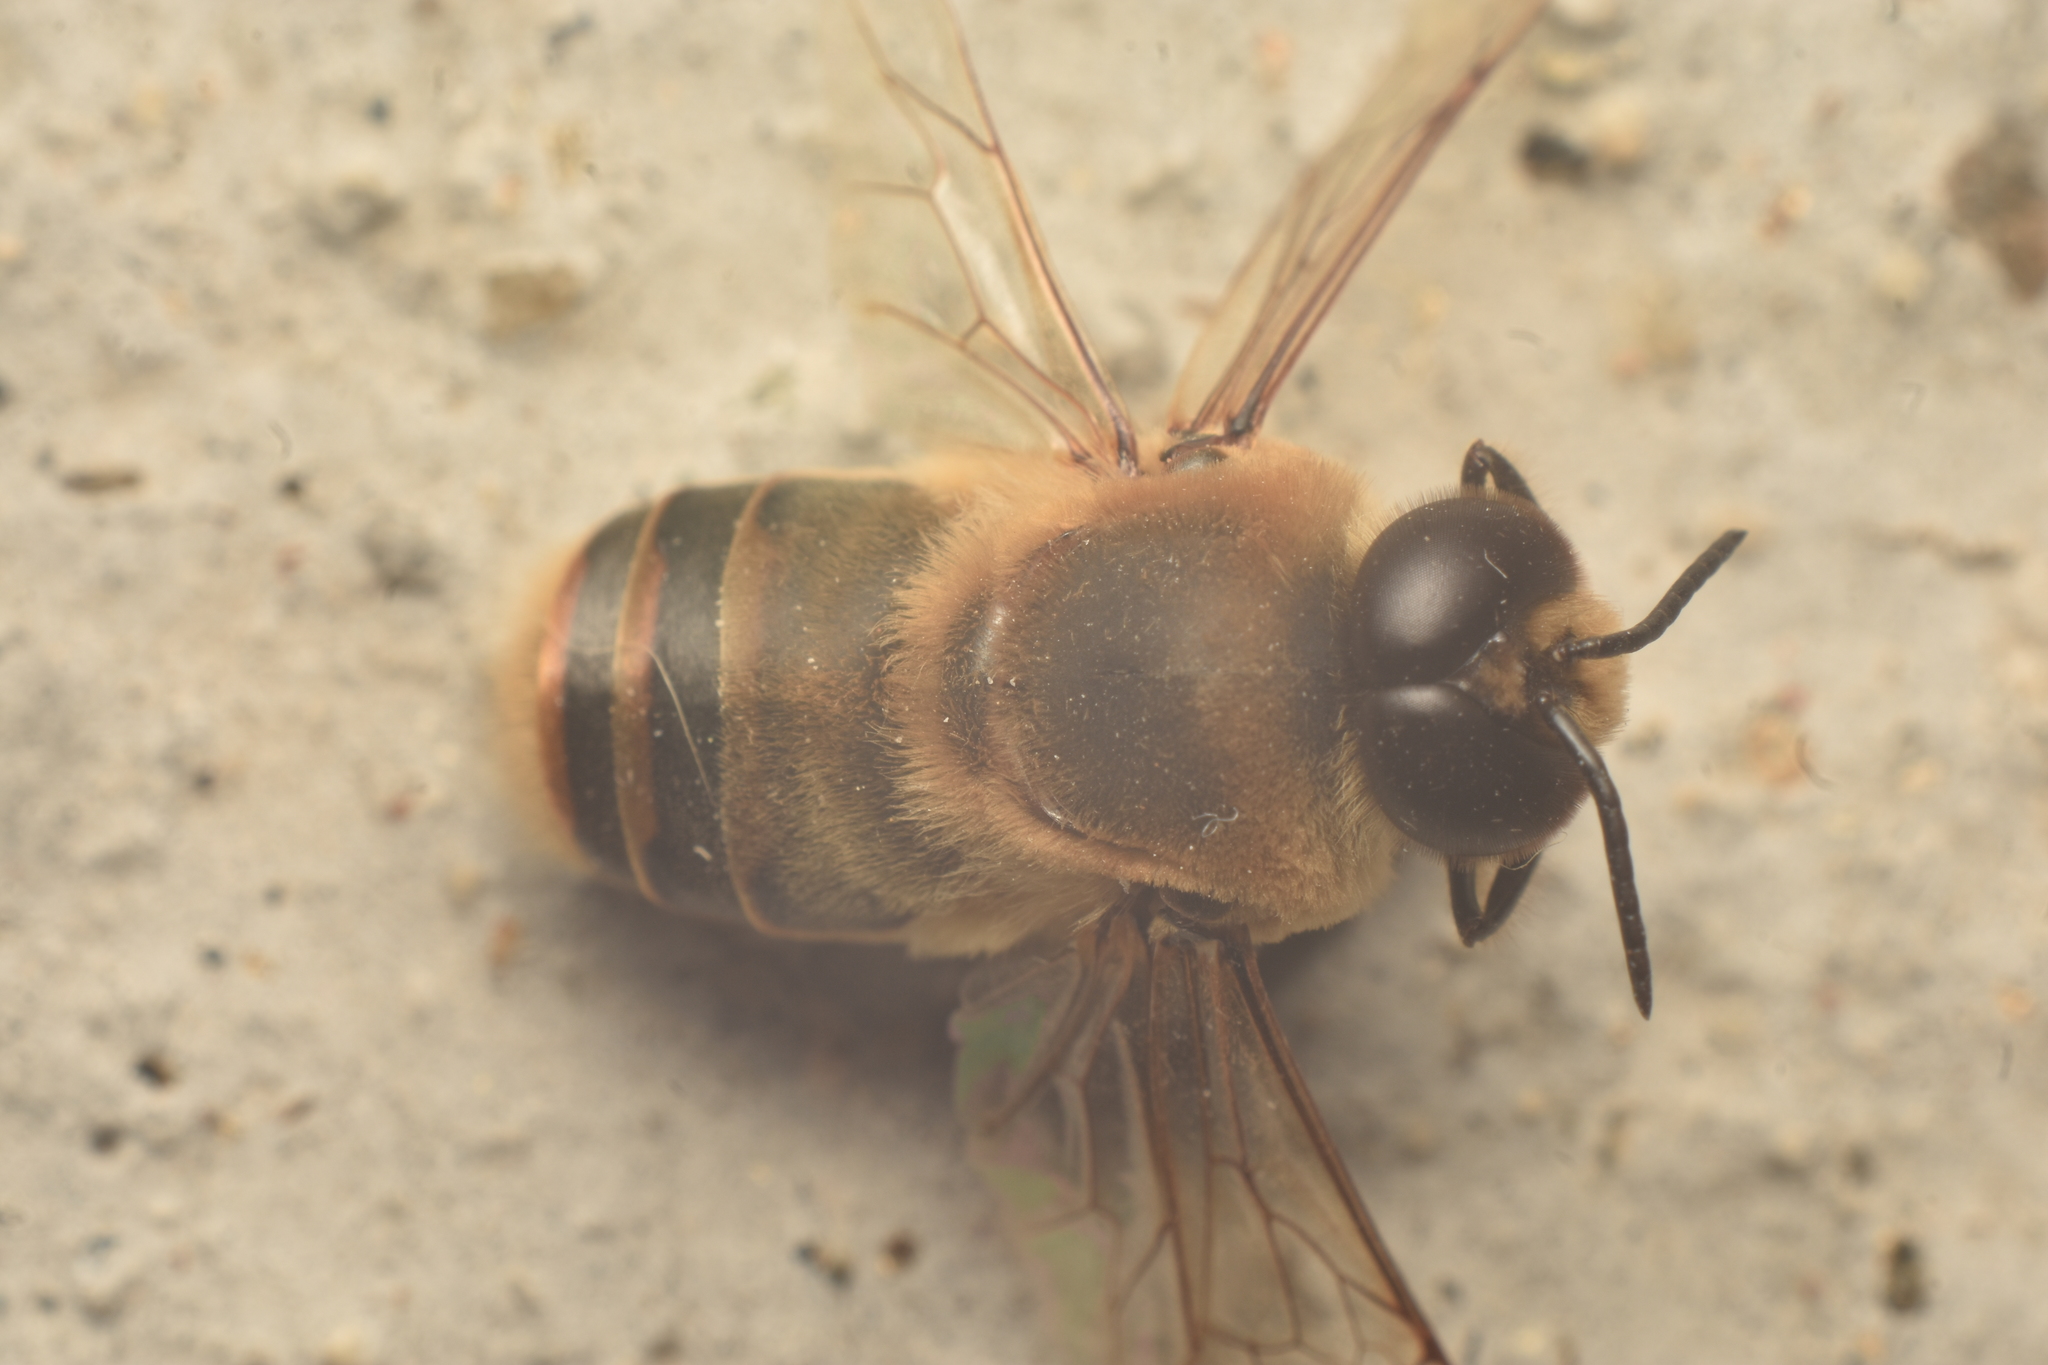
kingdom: Animalia
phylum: Arthropoda
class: Insecta
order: Hymenoptera
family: Apidae
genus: Apis
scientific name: Apis mellifera
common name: Honey bee
